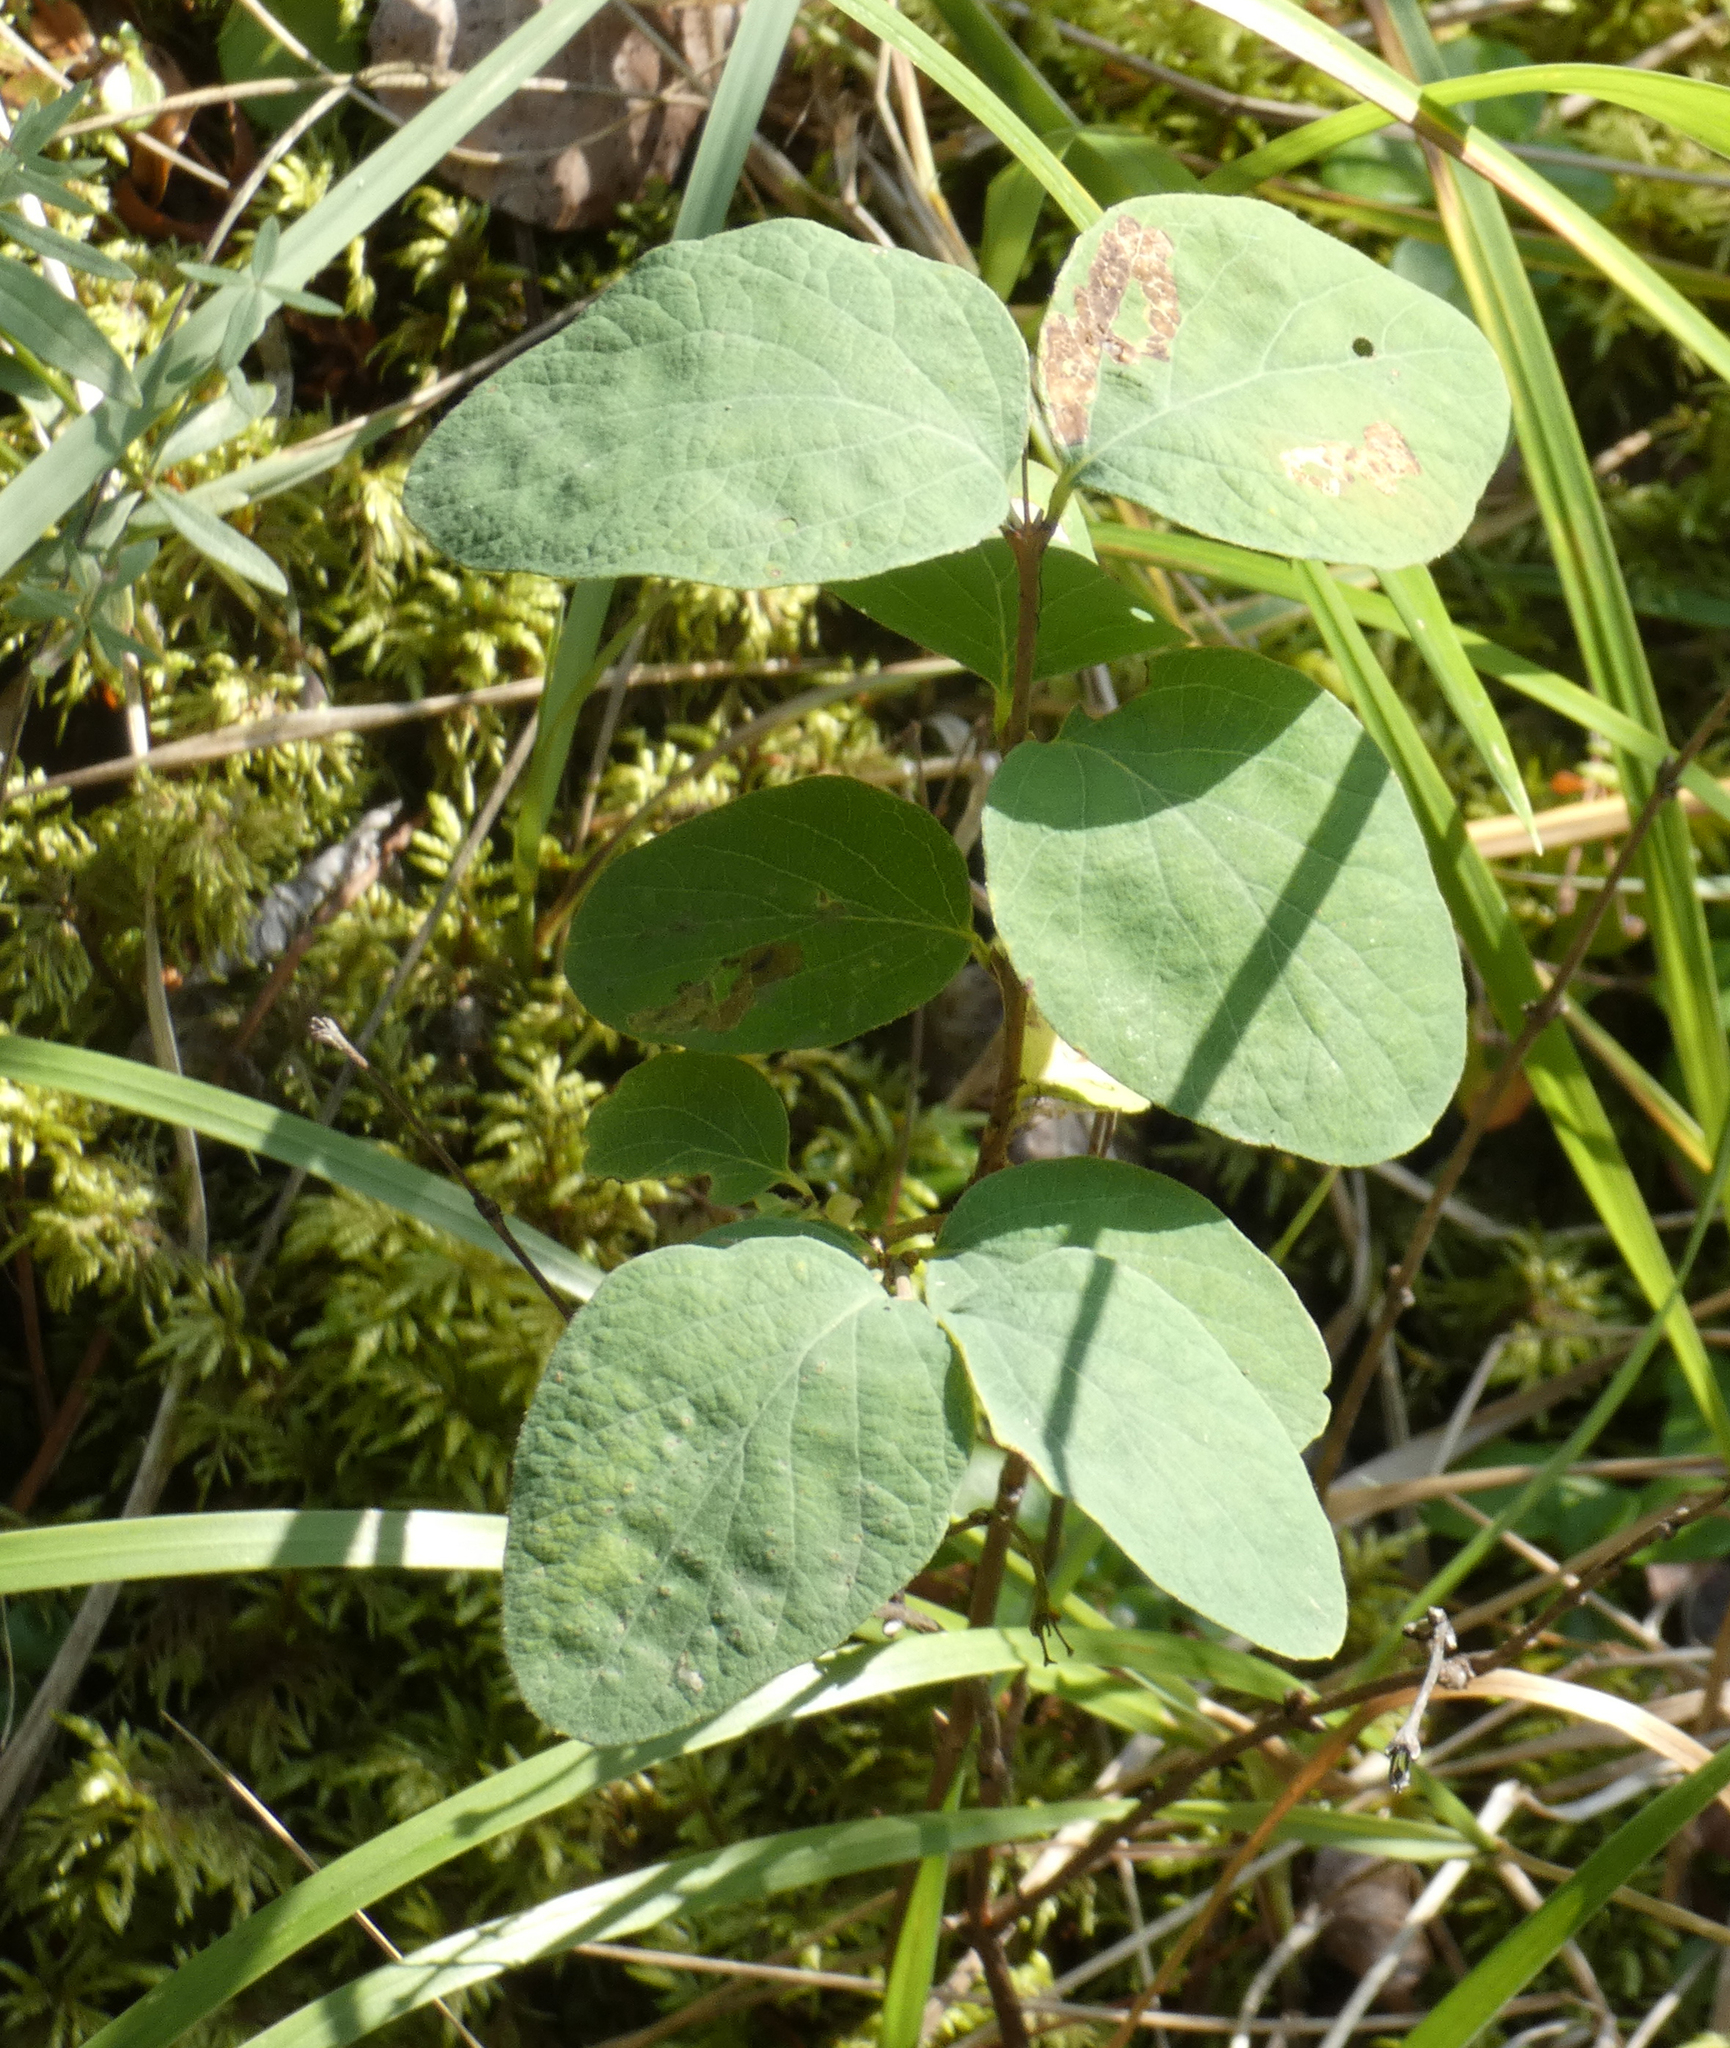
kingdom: Plantae
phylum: Tracheophyta
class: Magnoliopsida
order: Dipsacales
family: Caprifoliaceae
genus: Symphoricarpos
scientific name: Symphoricarpos occidentalis
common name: Wolfberry
